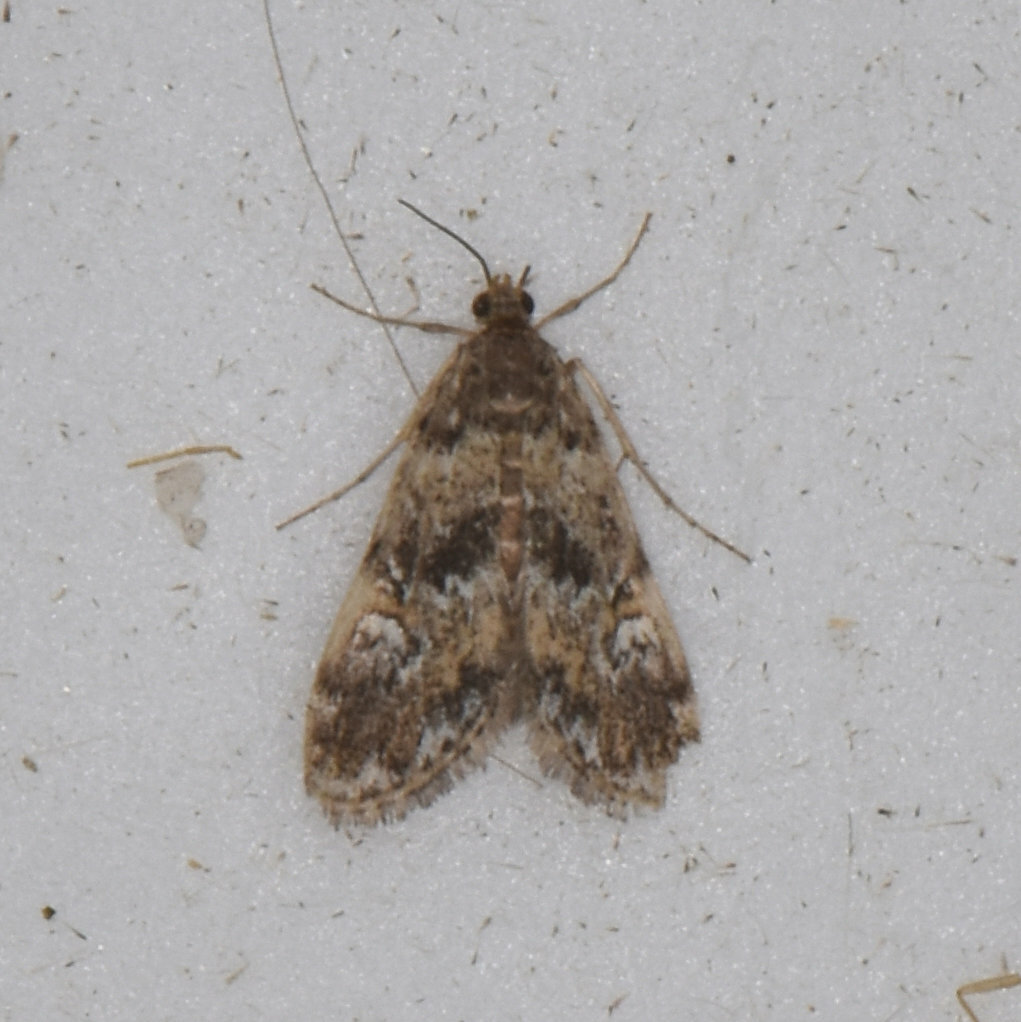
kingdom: Animalia
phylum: Arthropoda
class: Insecta
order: Lepidoptera
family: Crambidae
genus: Elophila
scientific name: Elophila obliteralis
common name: Waterlily leafcutter moth
